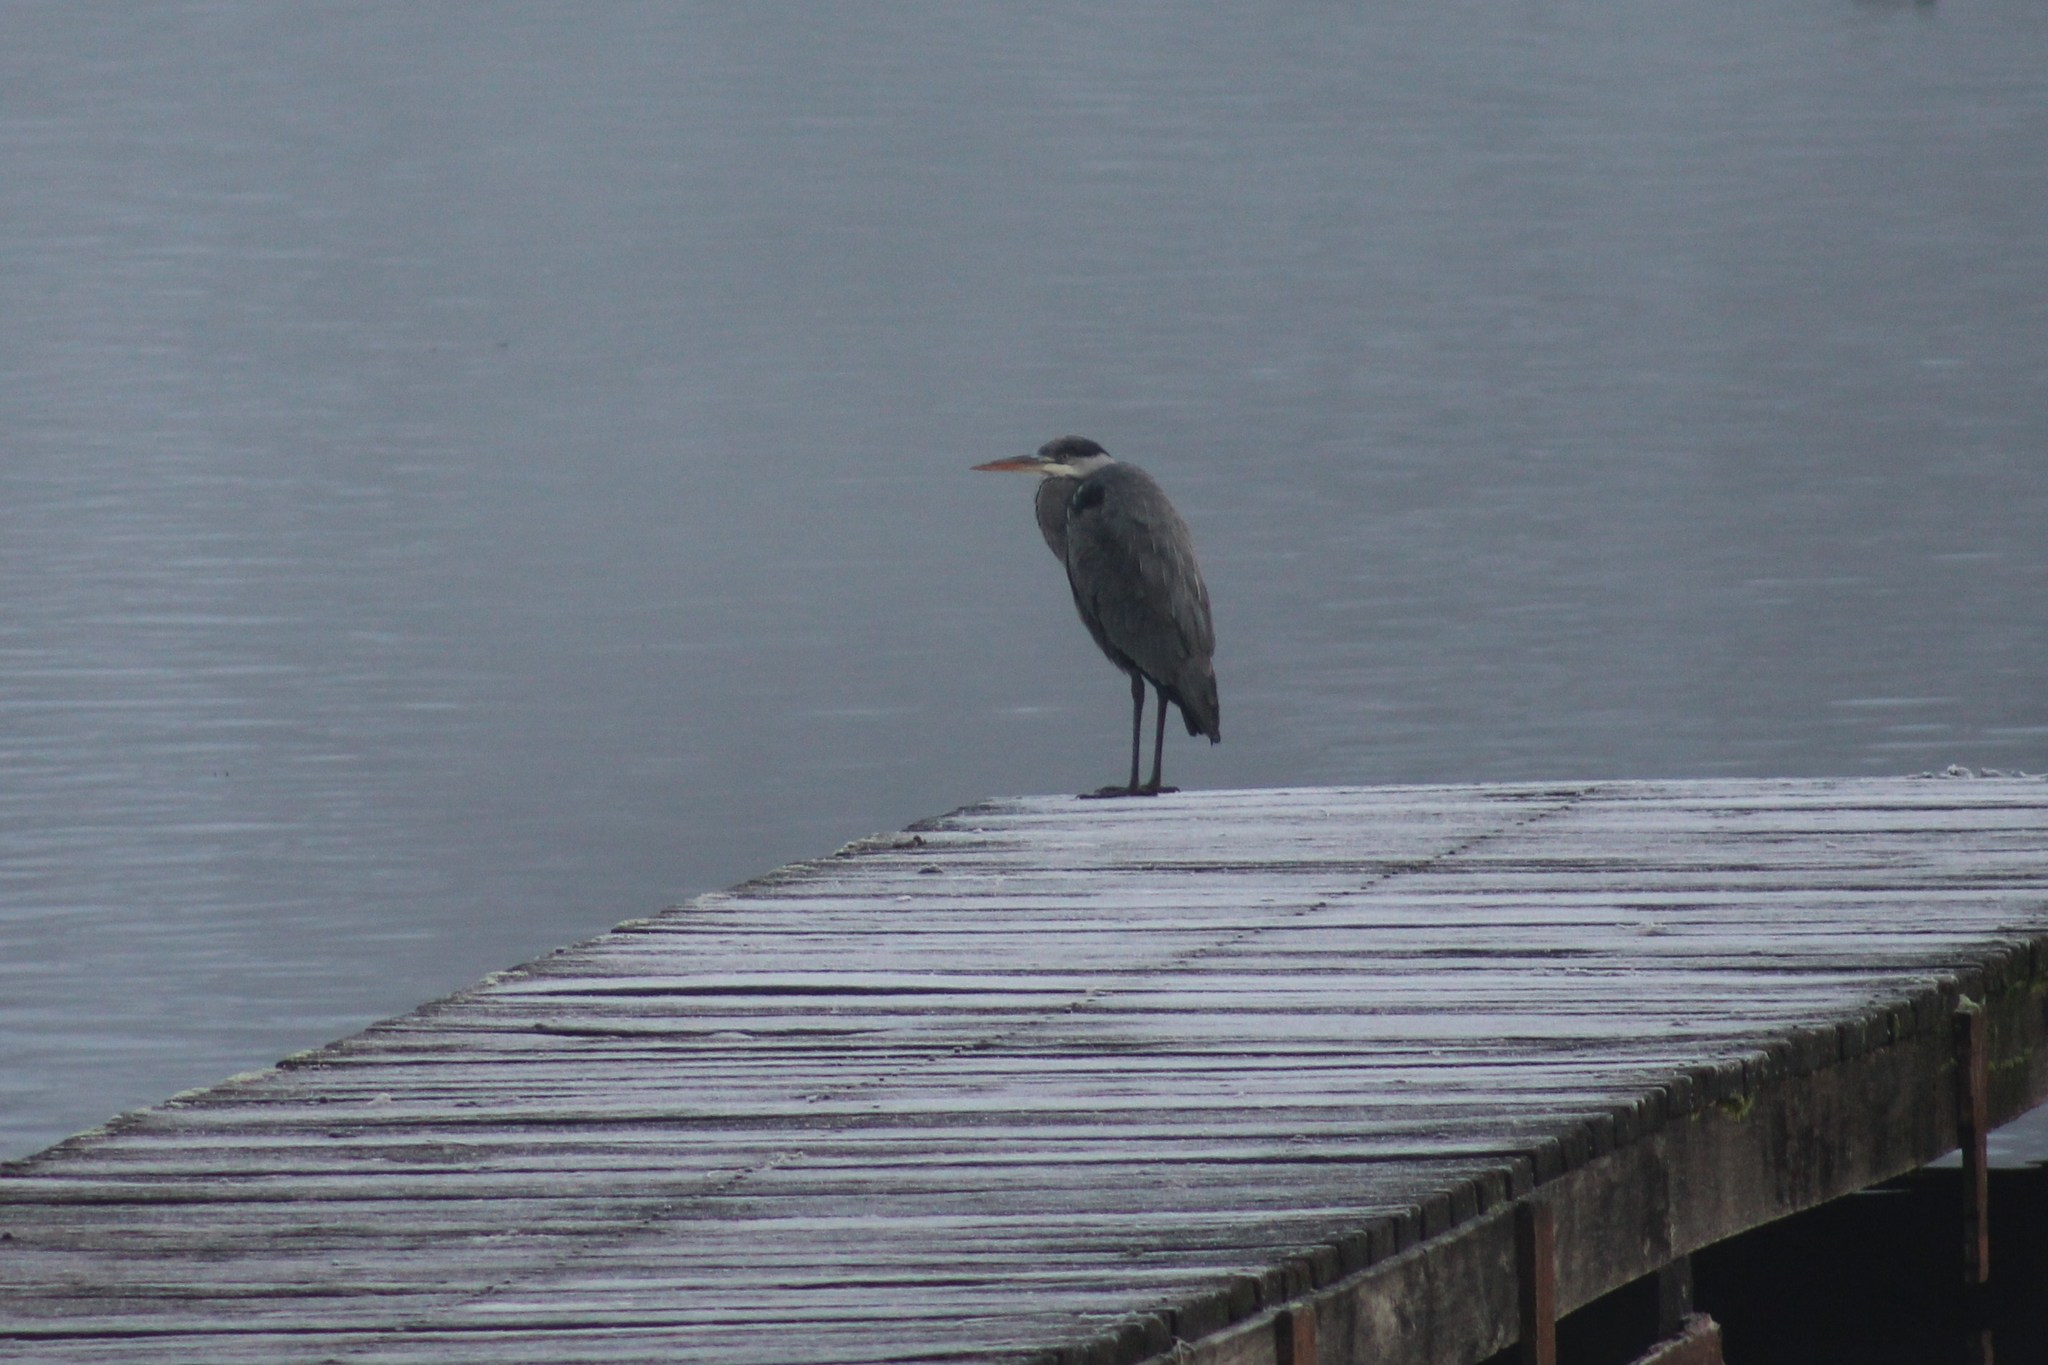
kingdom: Animalia
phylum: Chordata
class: Aves
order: Pelecaniformes
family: Ardeidae
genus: Ardea
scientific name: Ardea cinerea
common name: Grey heron
